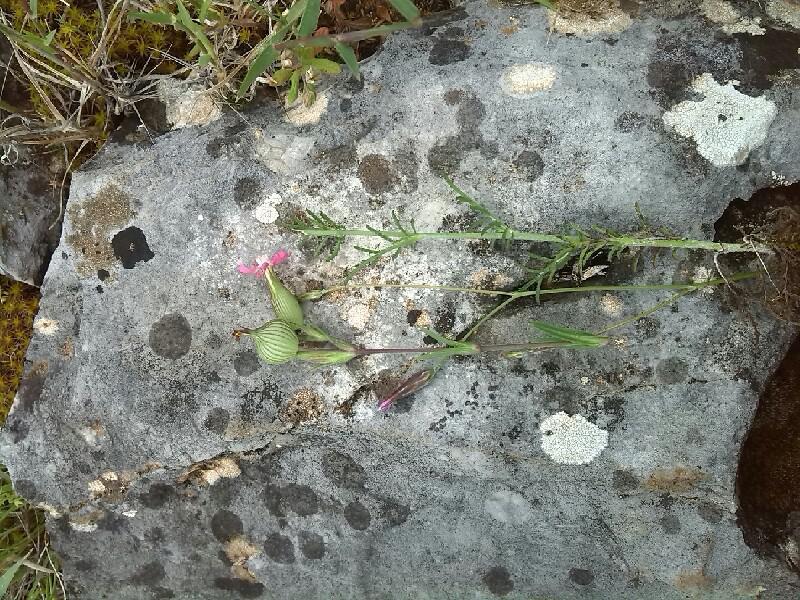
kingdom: Plantae
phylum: Tracheophyta
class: Magnoliopsida
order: Caryophyllales
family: Caryophyllaceae
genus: Silene
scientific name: Silene conica
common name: Sand catchfly
